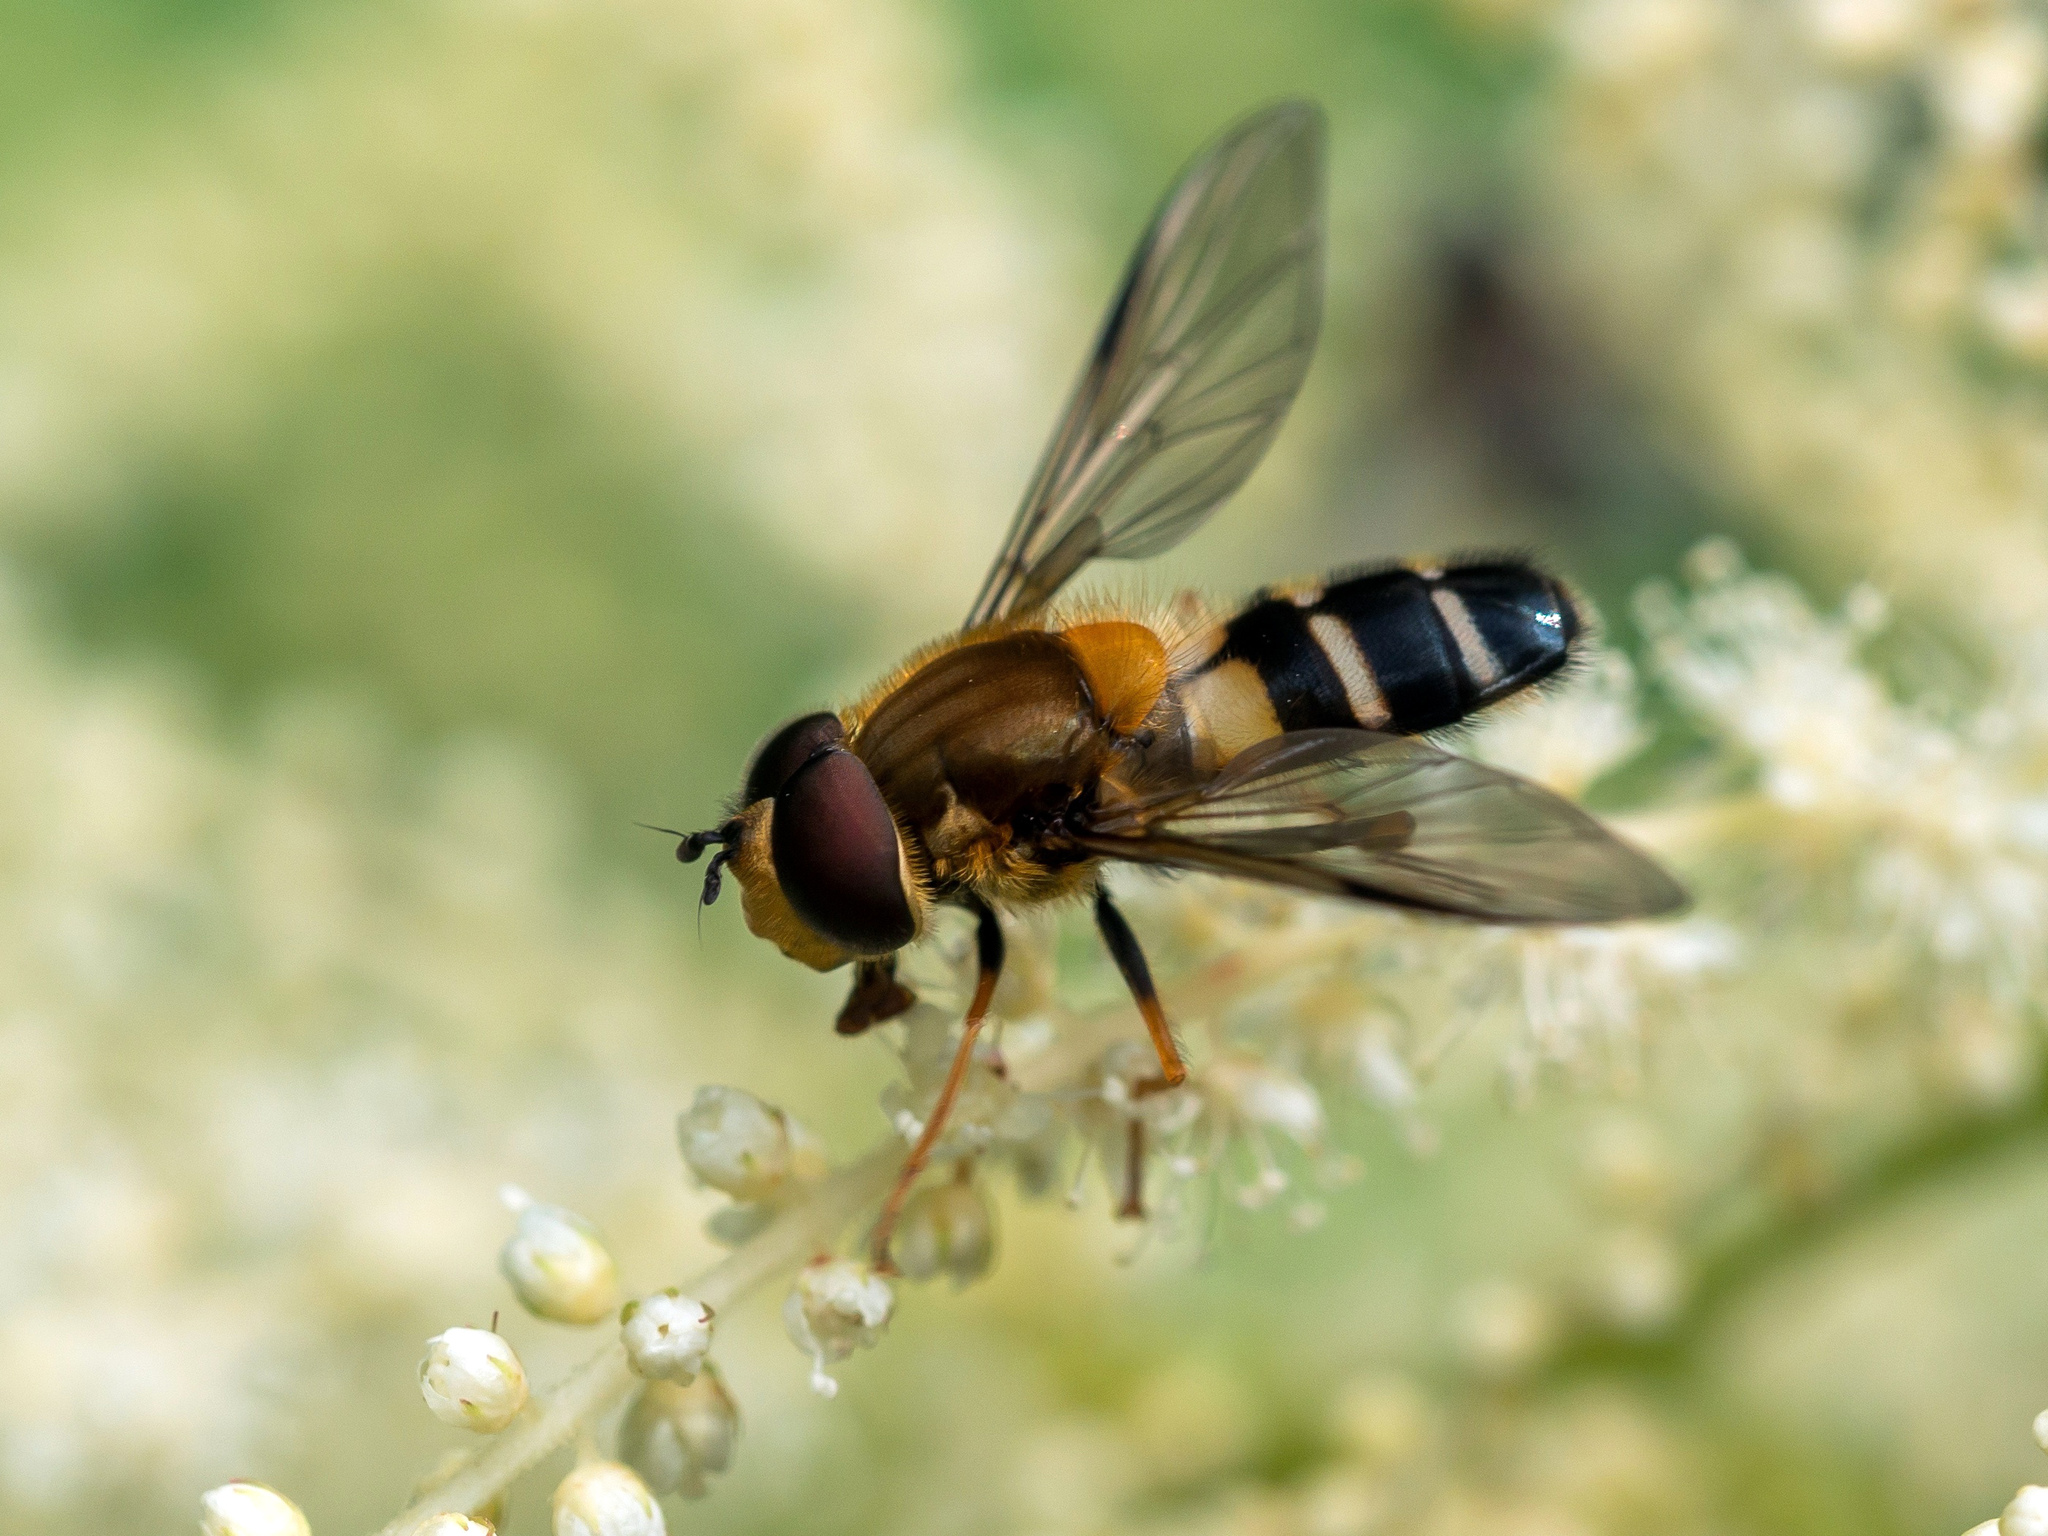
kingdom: Animalia
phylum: Arthropoda
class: Insecta
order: Diptera
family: Syrphidae
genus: Leucozona
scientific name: Leucozona glaucia
